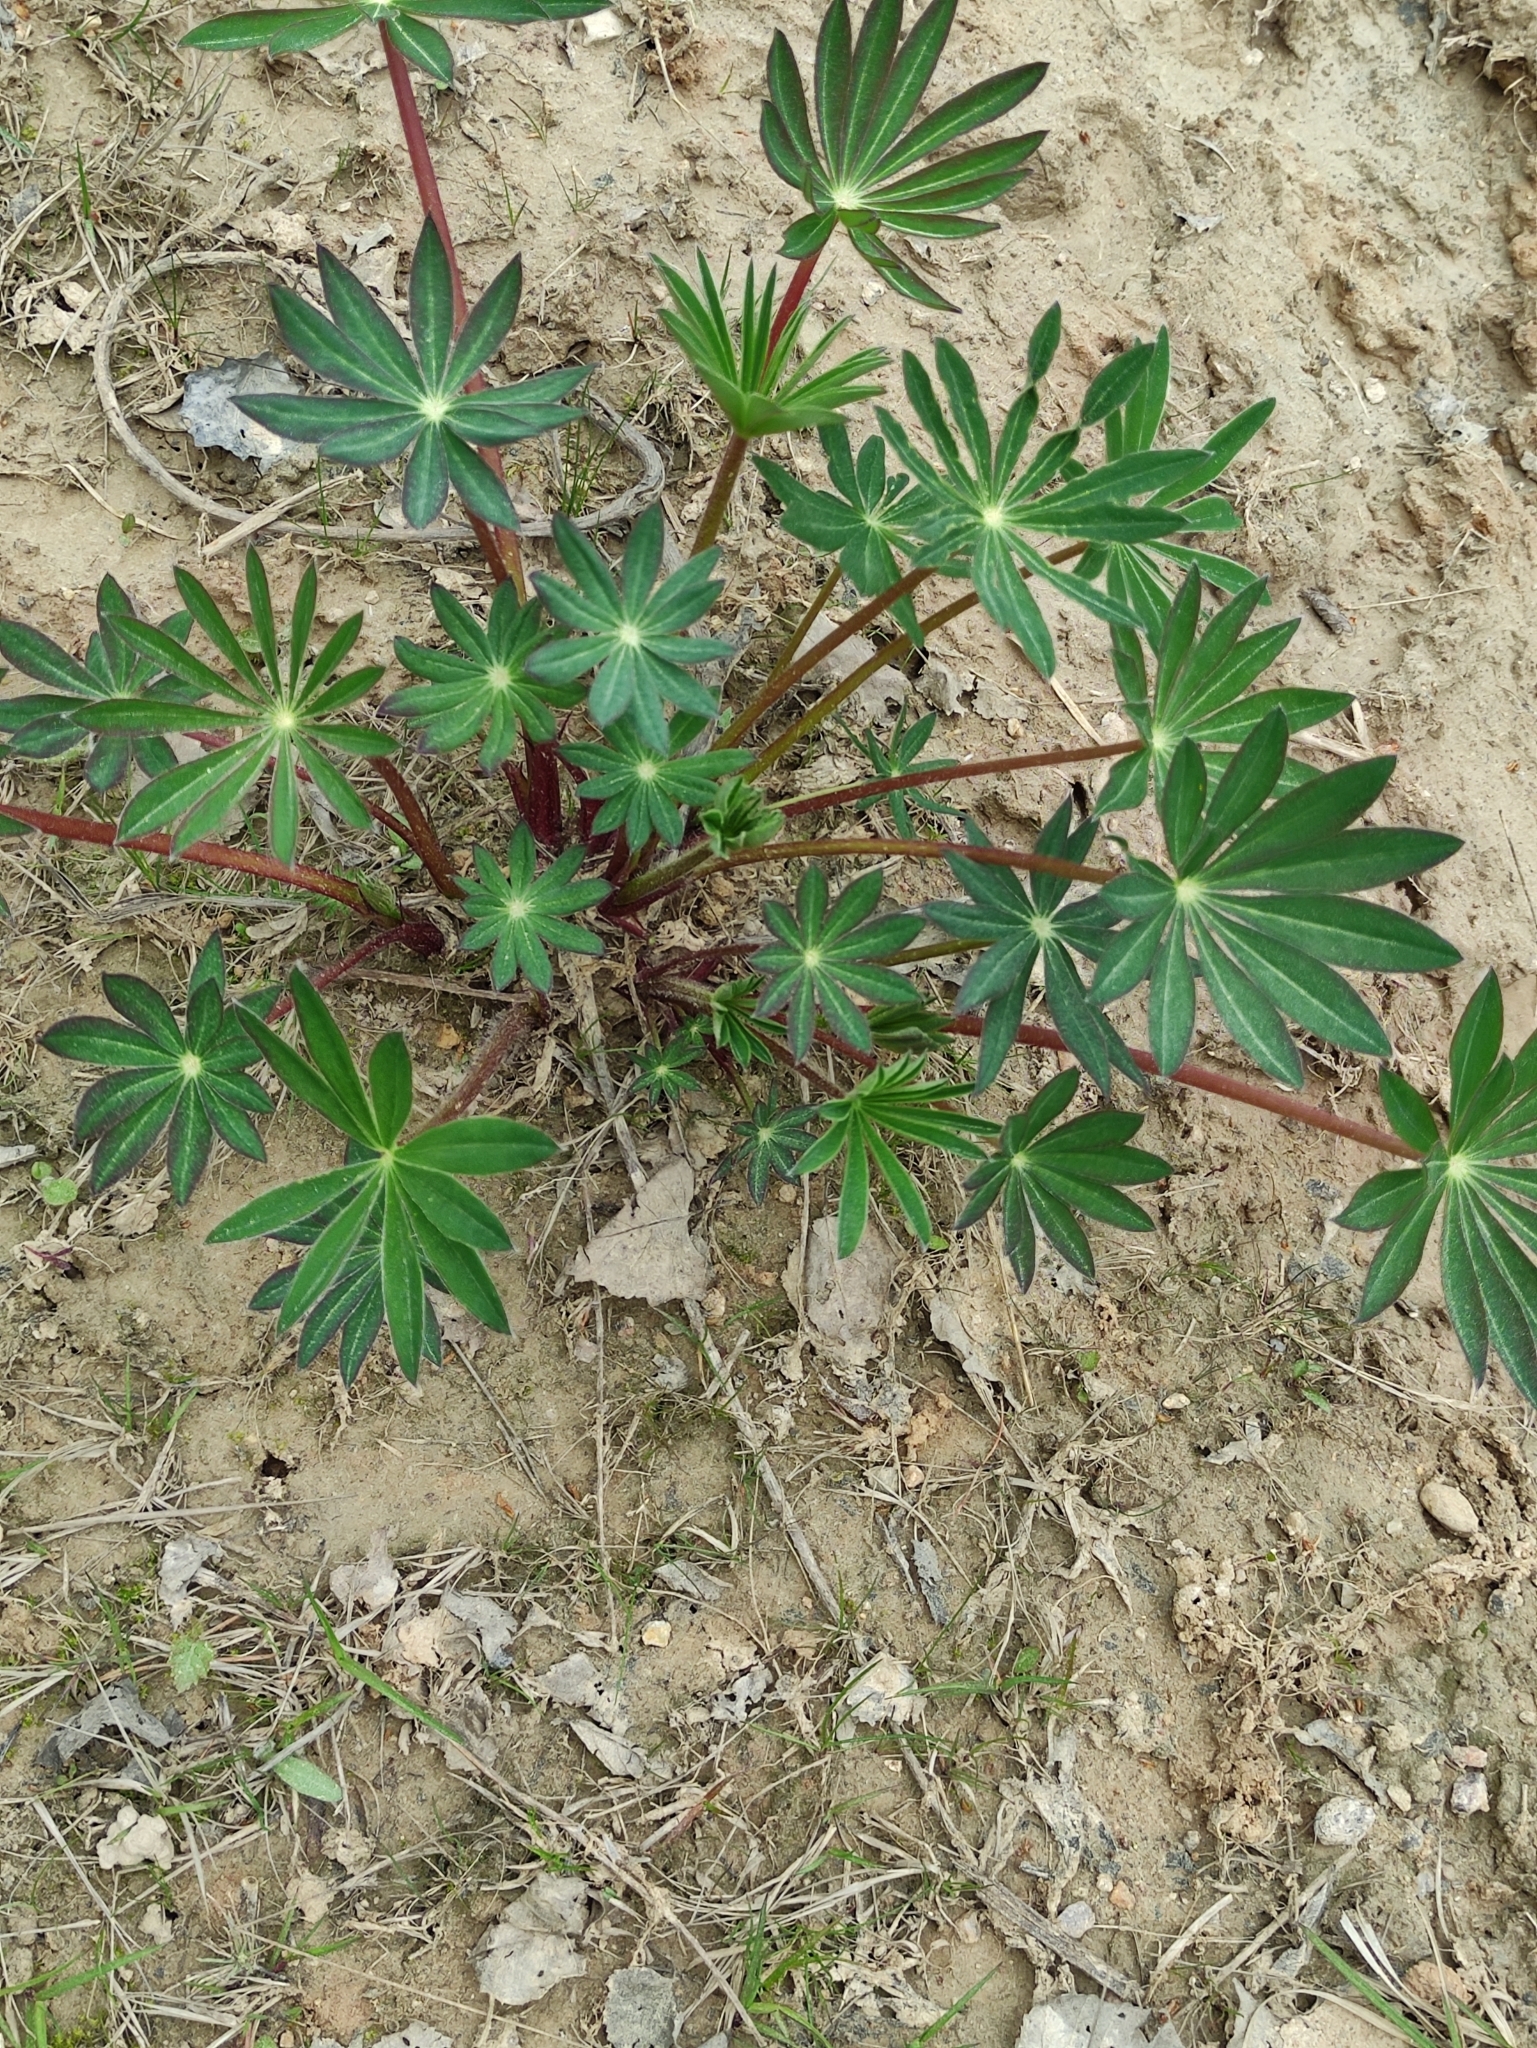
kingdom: Plantae
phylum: Tracheophyta
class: Magnoliopsida
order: Fabales
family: Fabaceae
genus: Lupinus
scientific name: Lupinus polyphyllus
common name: Garden lupin
